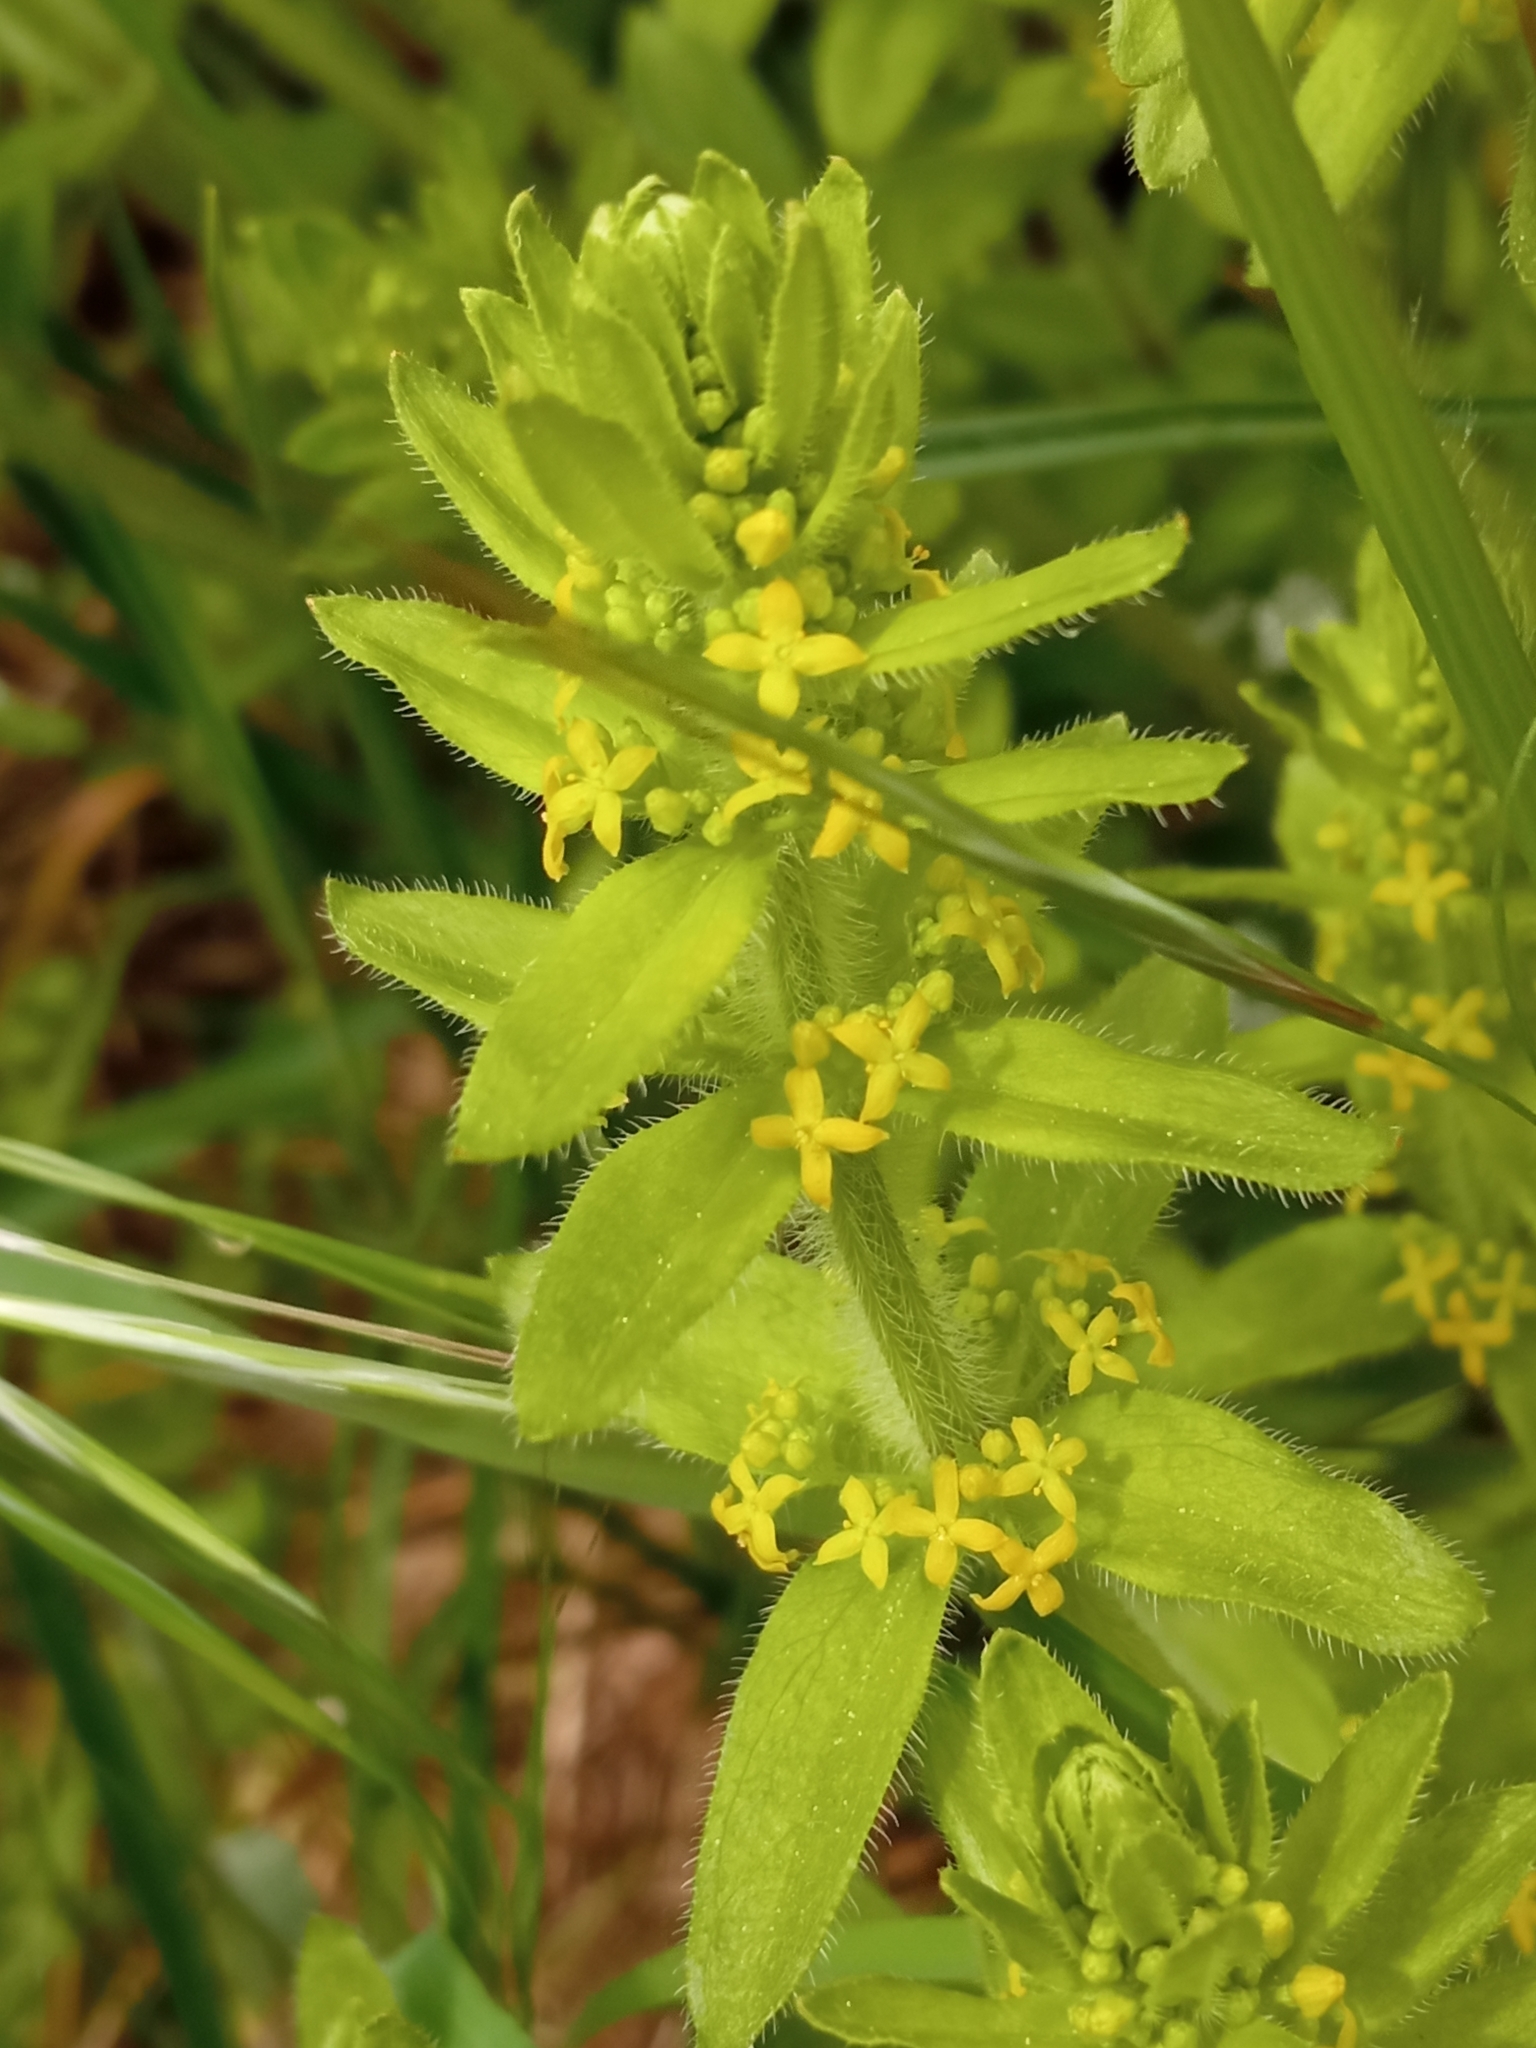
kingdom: Plantae
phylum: Tracheophyta
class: Magnoliopsida
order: Gentianales
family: Rubiaceae
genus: Cruciata
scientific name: Cruciata laevipes
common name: Crosswort
